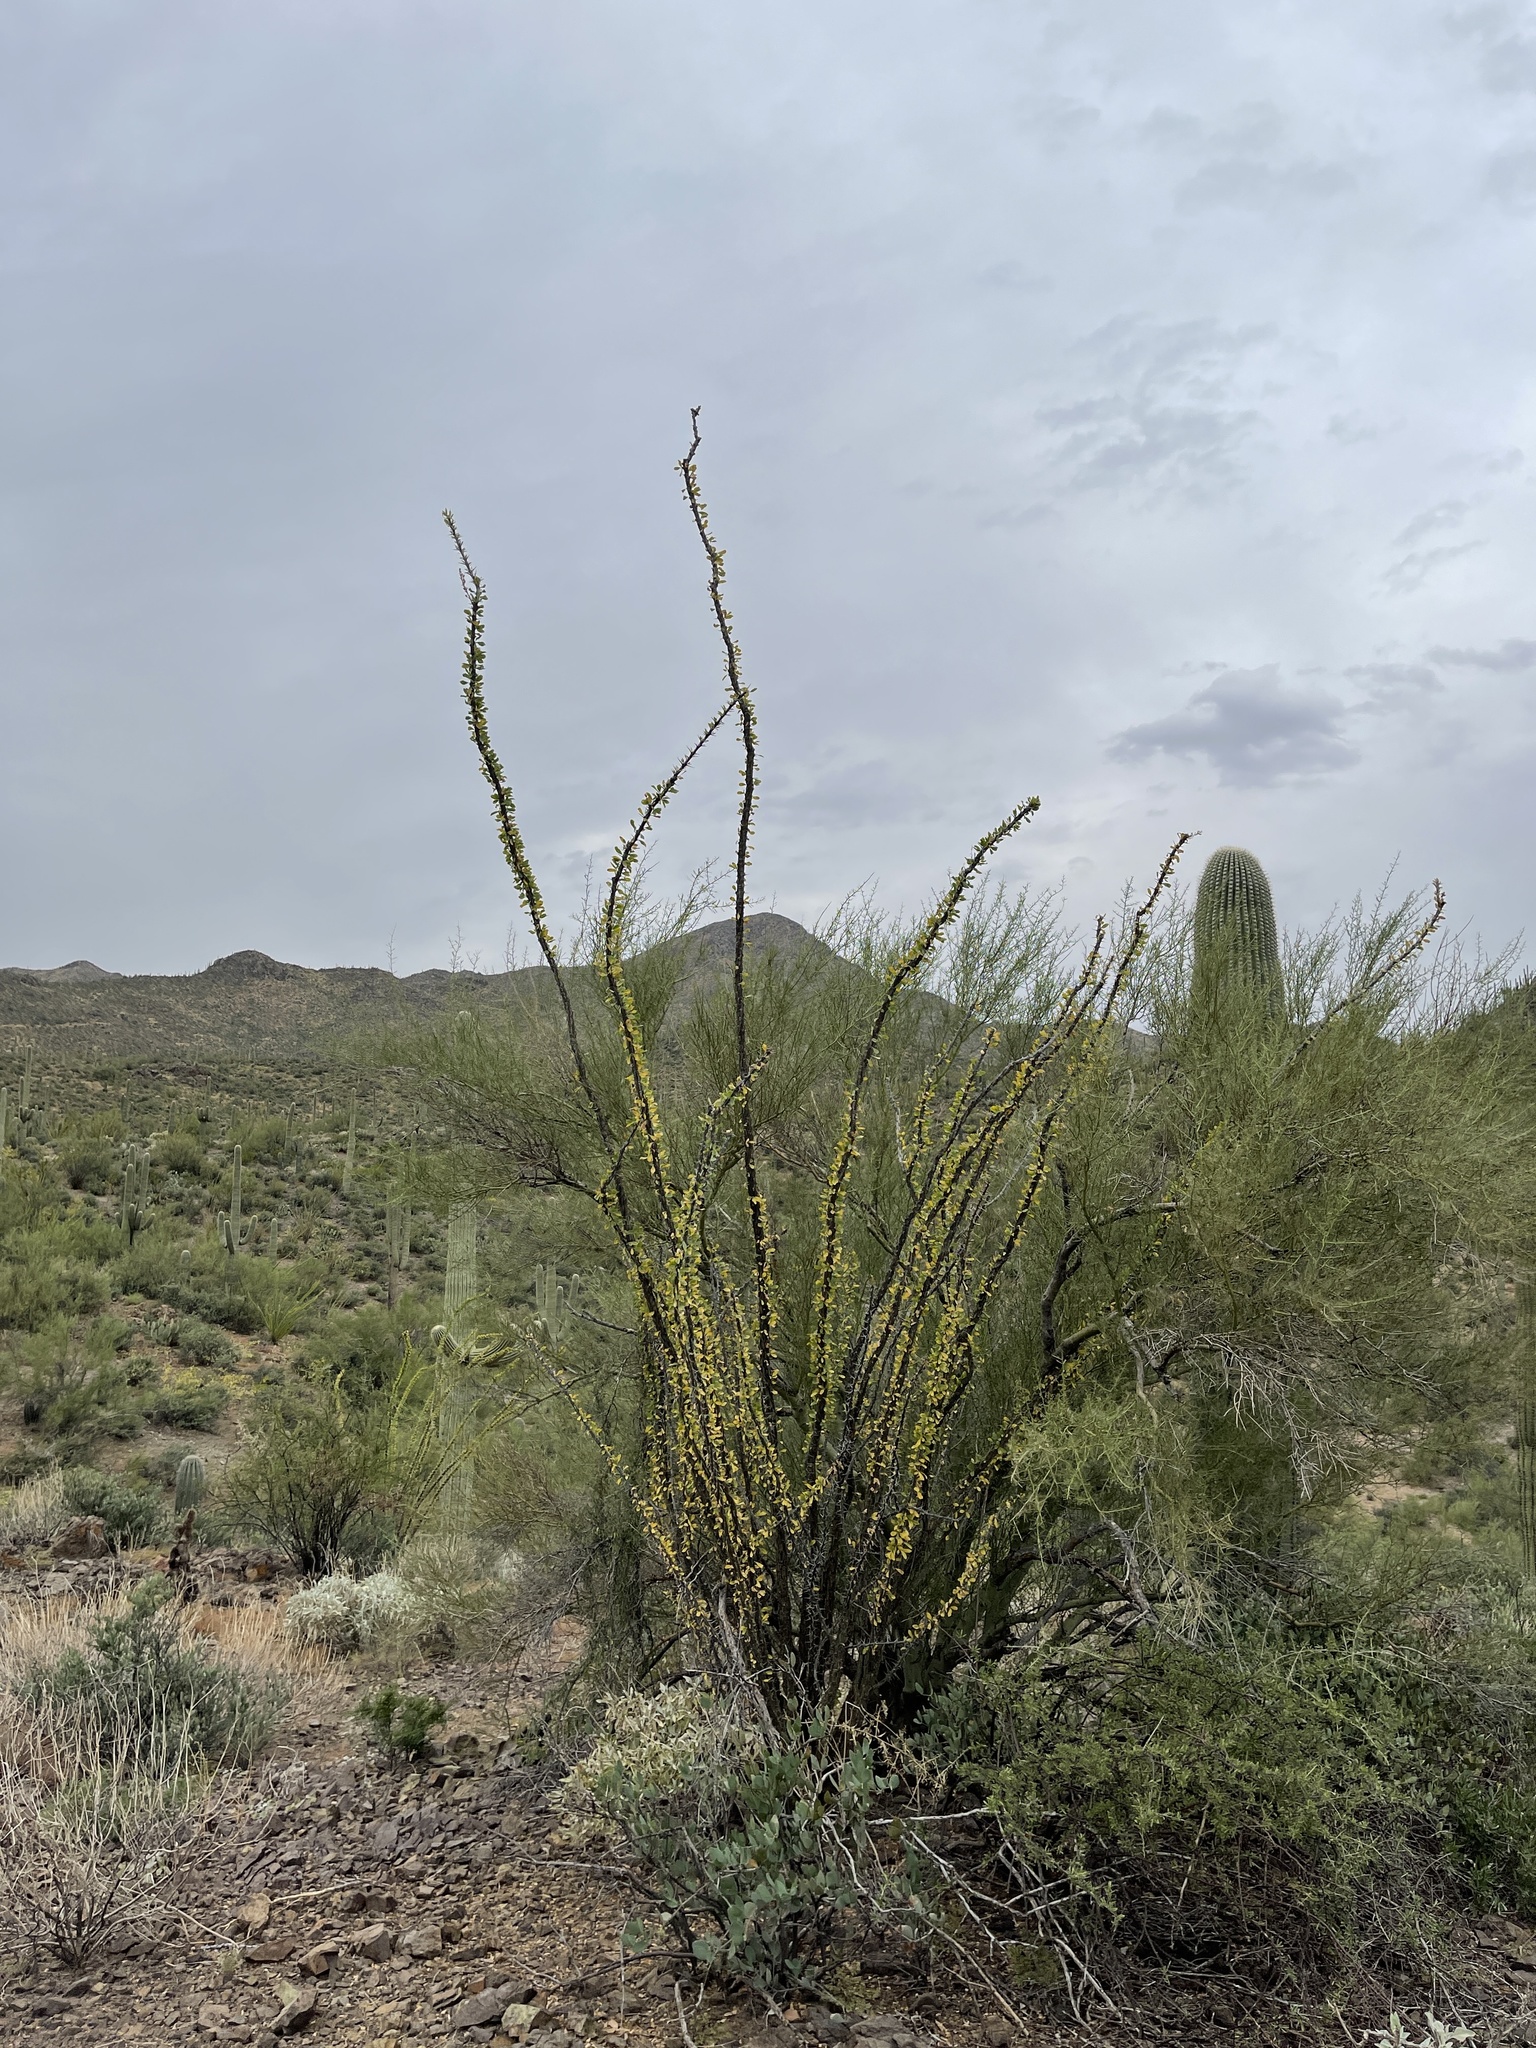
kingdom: Plantae
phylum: Tracheophyta
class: Magnoliopsida
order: Ericales
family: Fouquieriaceae
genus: Fouquieria
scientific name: Fouquieria splendens
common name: Vine-cactus
